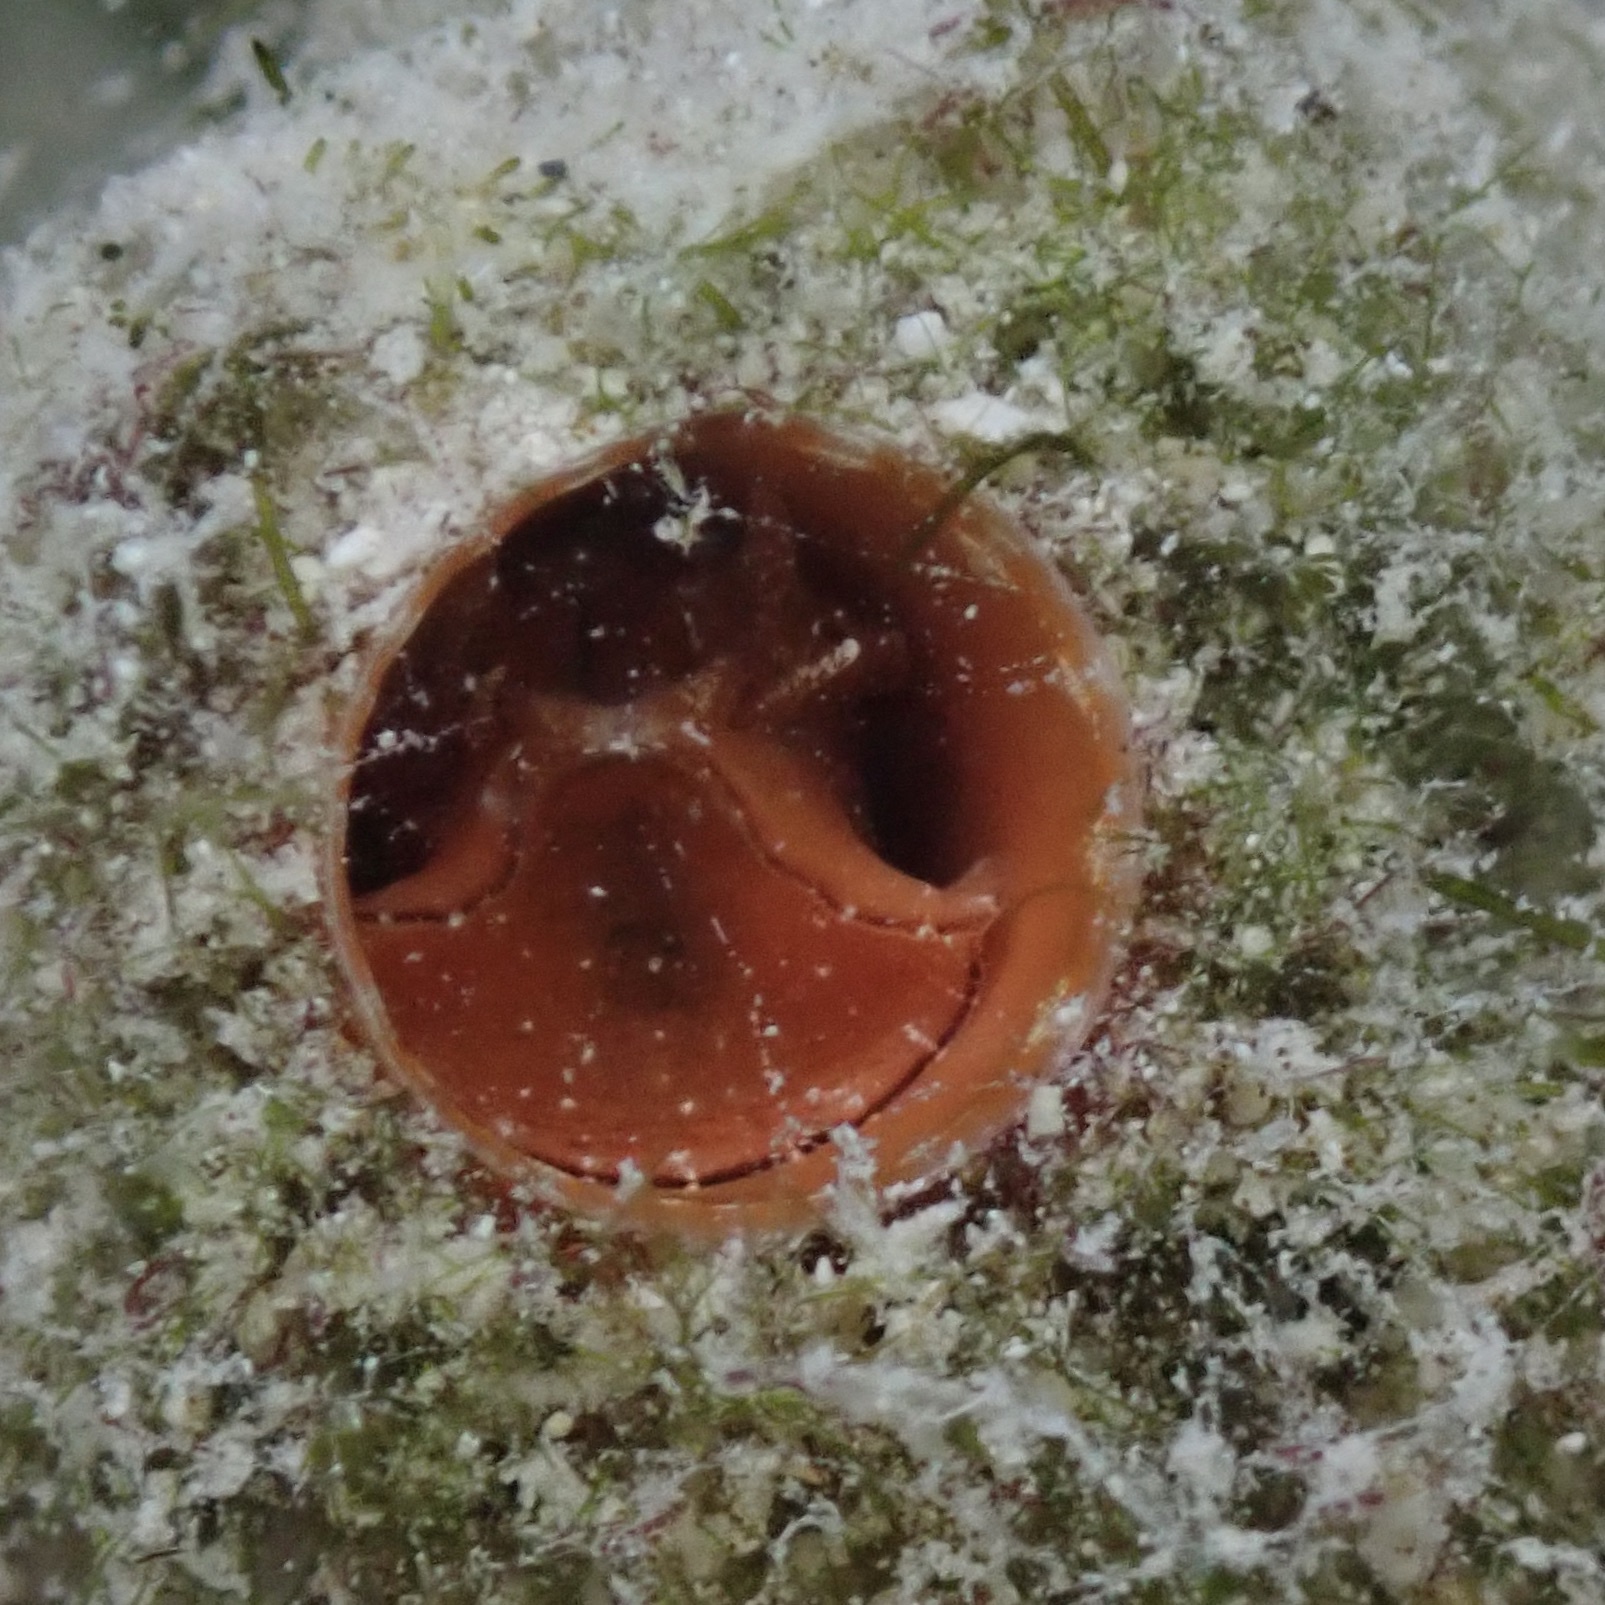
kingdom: Animalia
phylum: Mollusca
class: Gastropoda
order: Littorinimorpha
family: Vermetidae
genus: Thylacodes
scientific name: Thylacodes decussatus
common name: Decussate wormsnail
